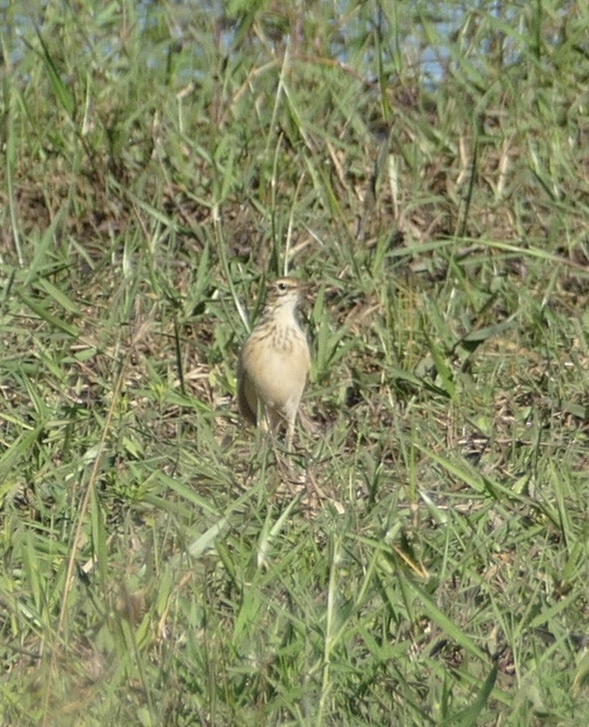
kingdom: Animalia
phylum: Chordata
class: Aves
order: Passeriformes
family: Motacillidae
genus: Anthus
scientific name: Anthus cinnamomeus
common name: African pipit
